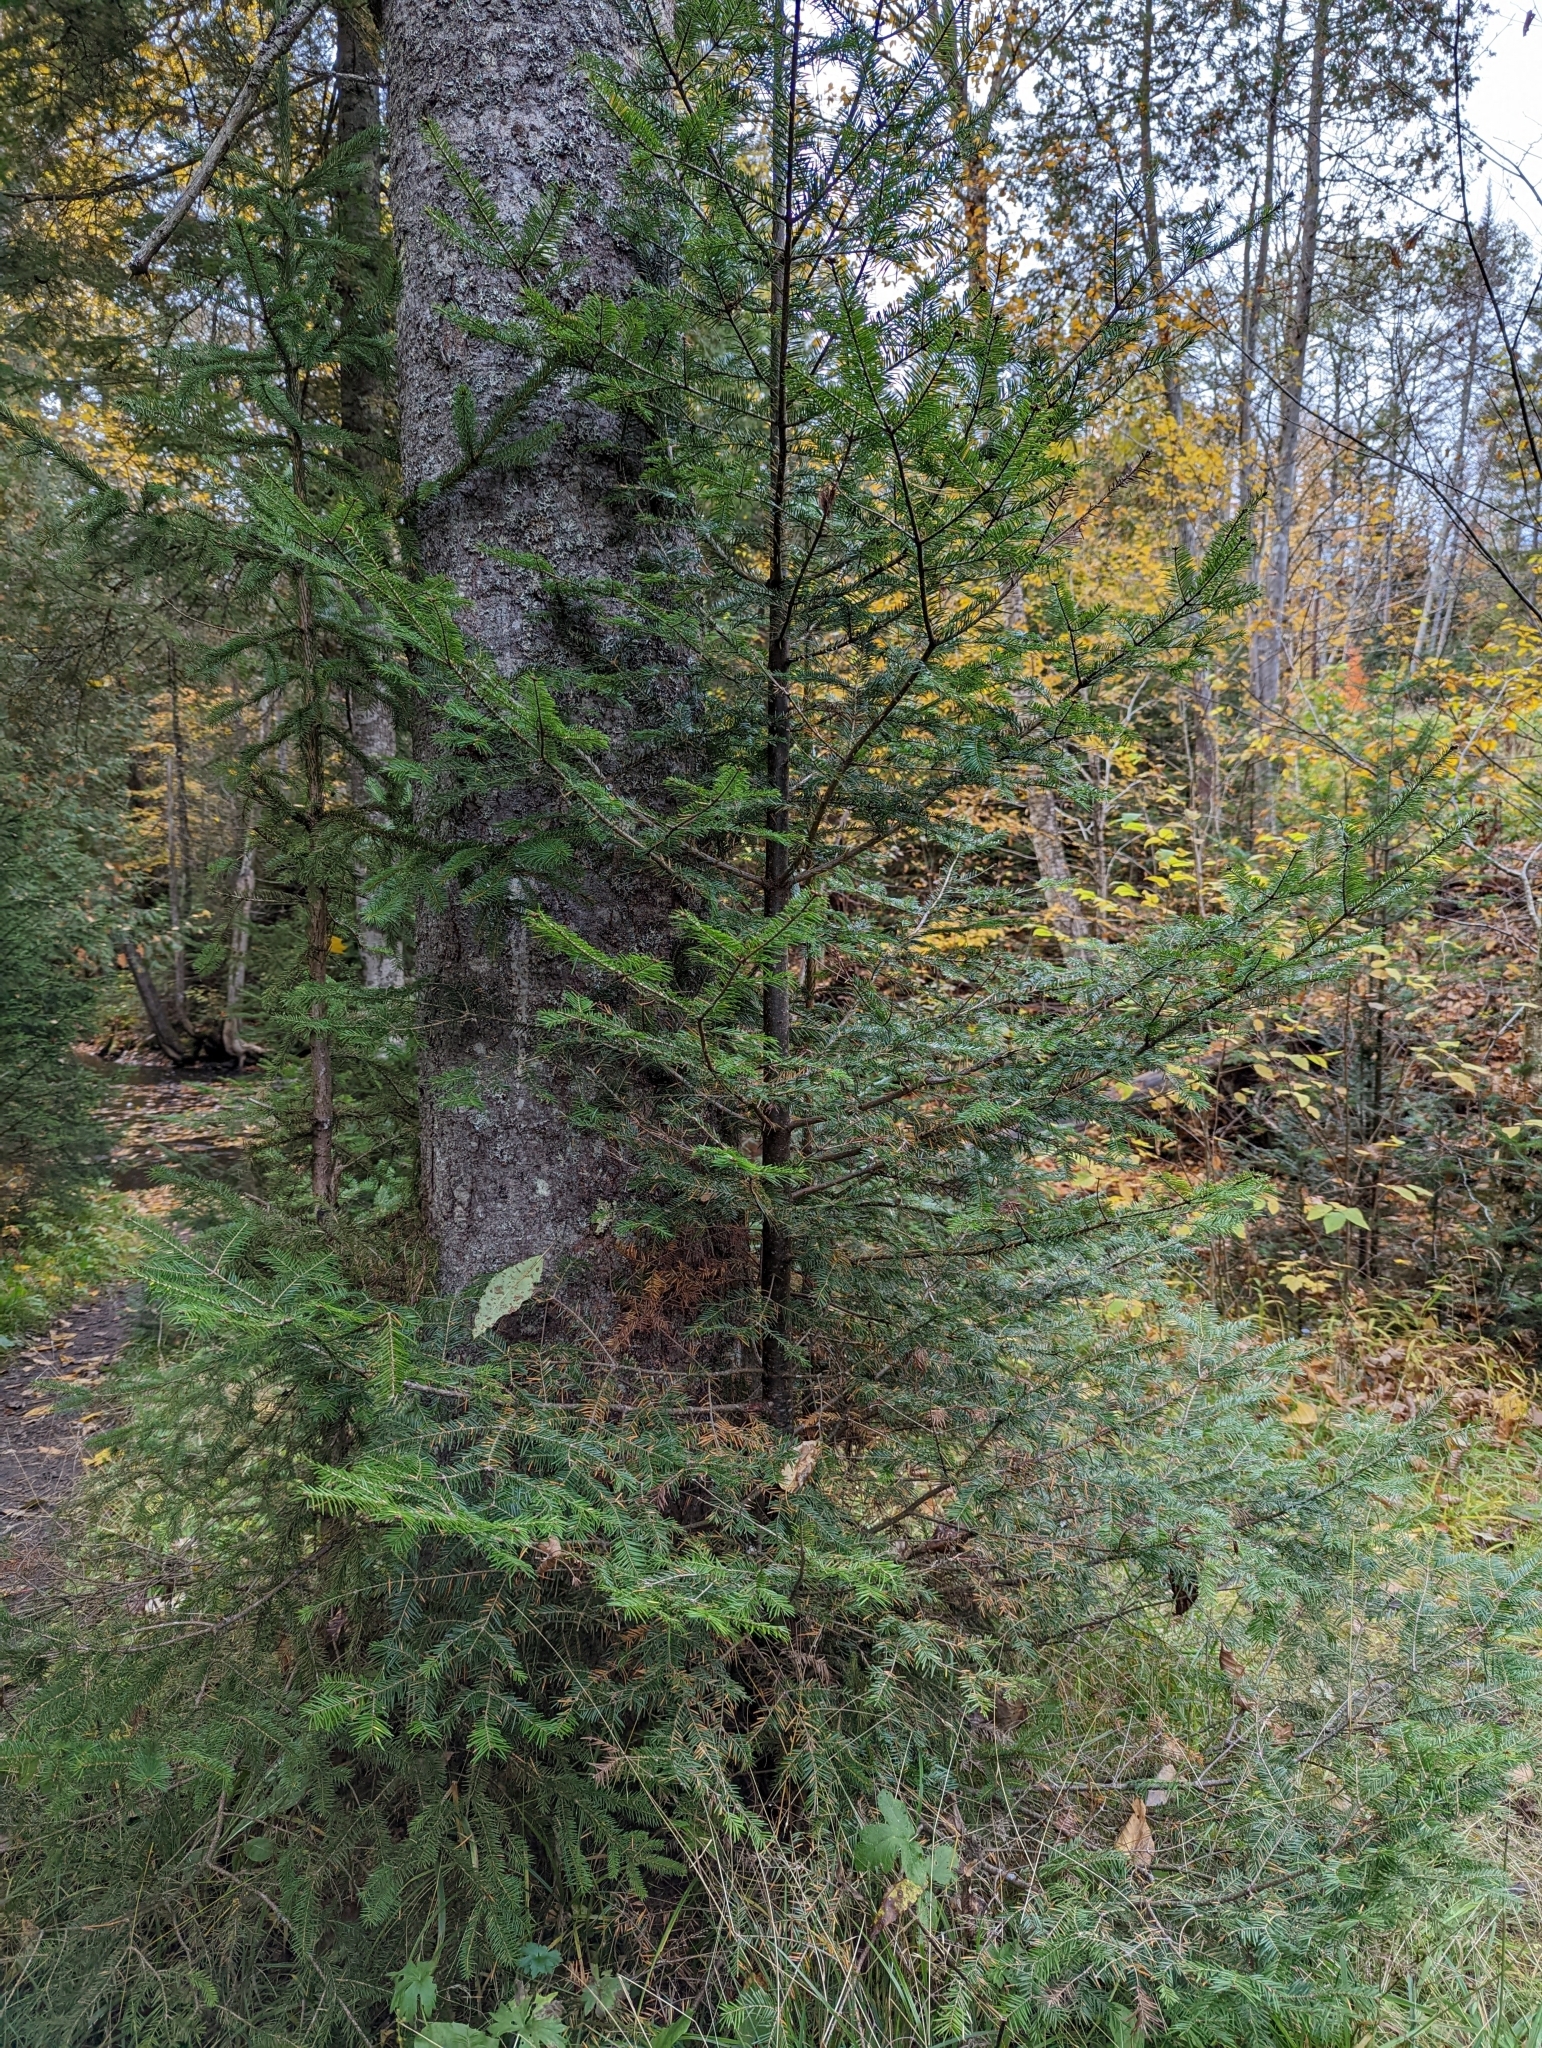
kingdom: Plantae
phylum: Tracheophyta
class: Pinopsida
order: Pinales
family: Pinaceae
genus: Abies
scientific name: Abies balsamea
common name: Balsam fir
